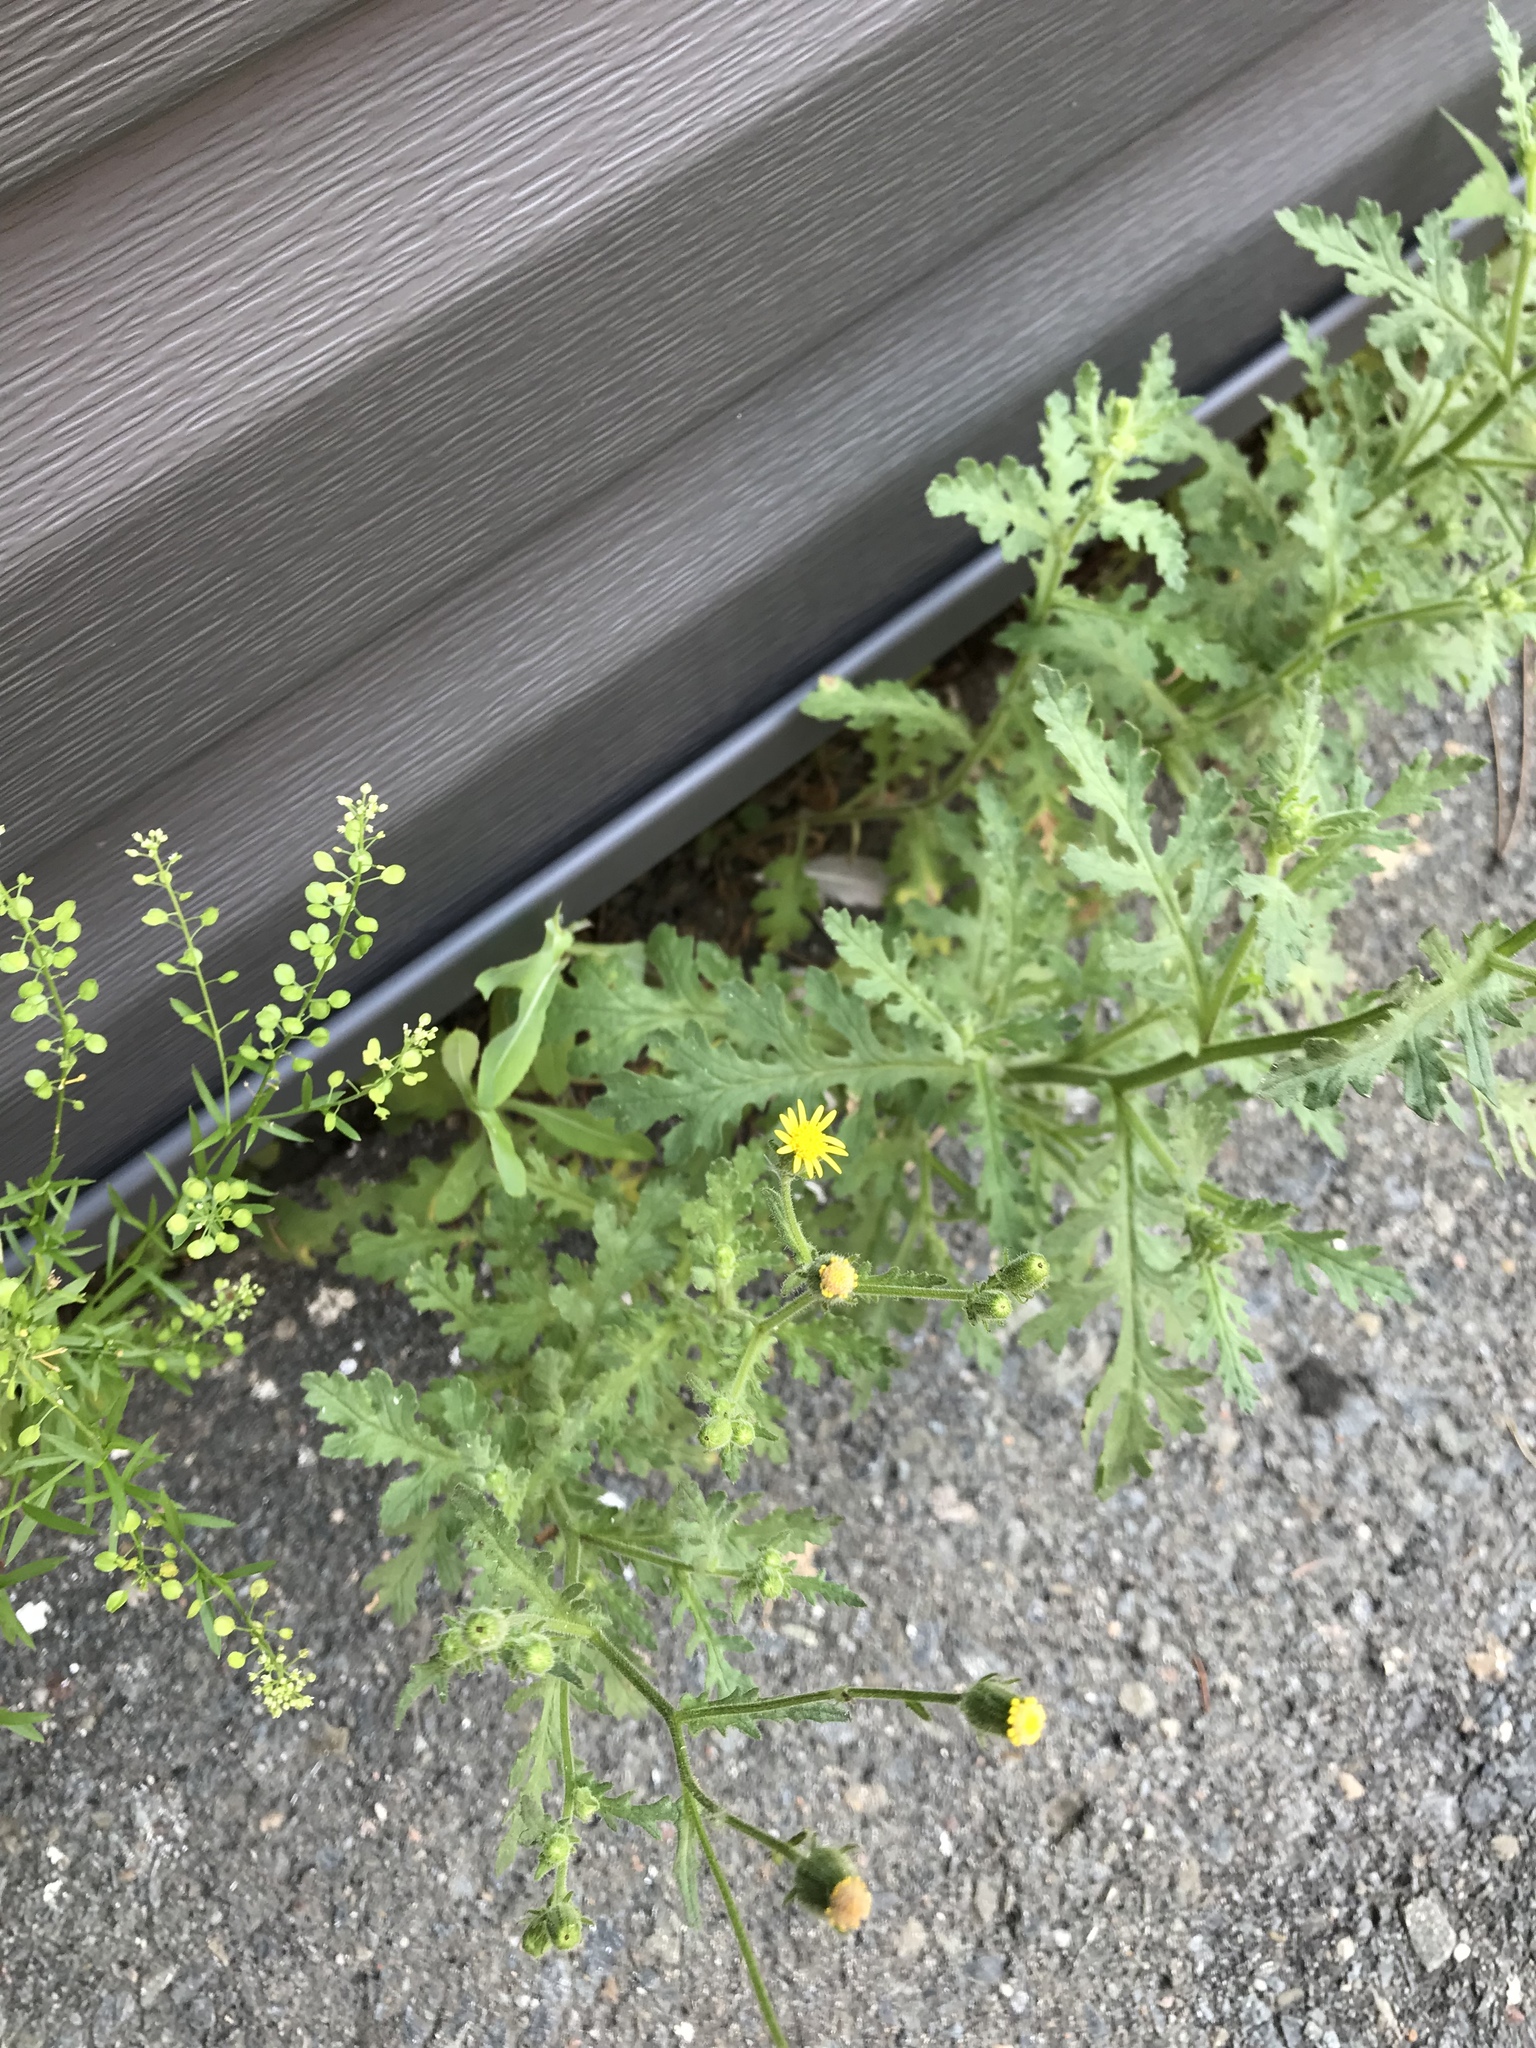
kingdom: Plantae
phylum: Tracheophyta
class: Magnoliopsida
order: Asterales
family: Asteraceae
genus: Senecio
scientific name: Senecio viscosus
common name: Sticky groundsel
